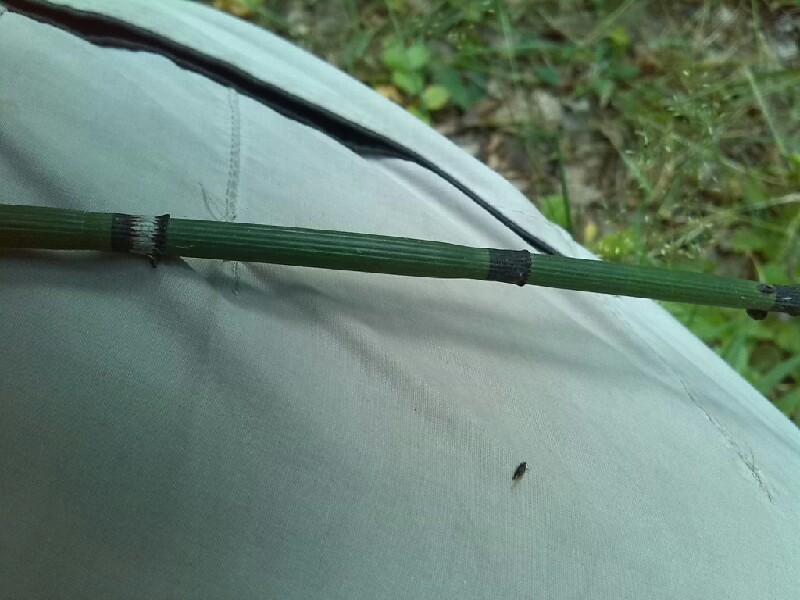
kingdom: Plantae
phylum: Tracheophyta
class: Polypodiopsida
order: Equisetales
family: Equisetaceae
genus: Equisetum
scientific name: Equisetum hyemale
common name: Rough horsetail
